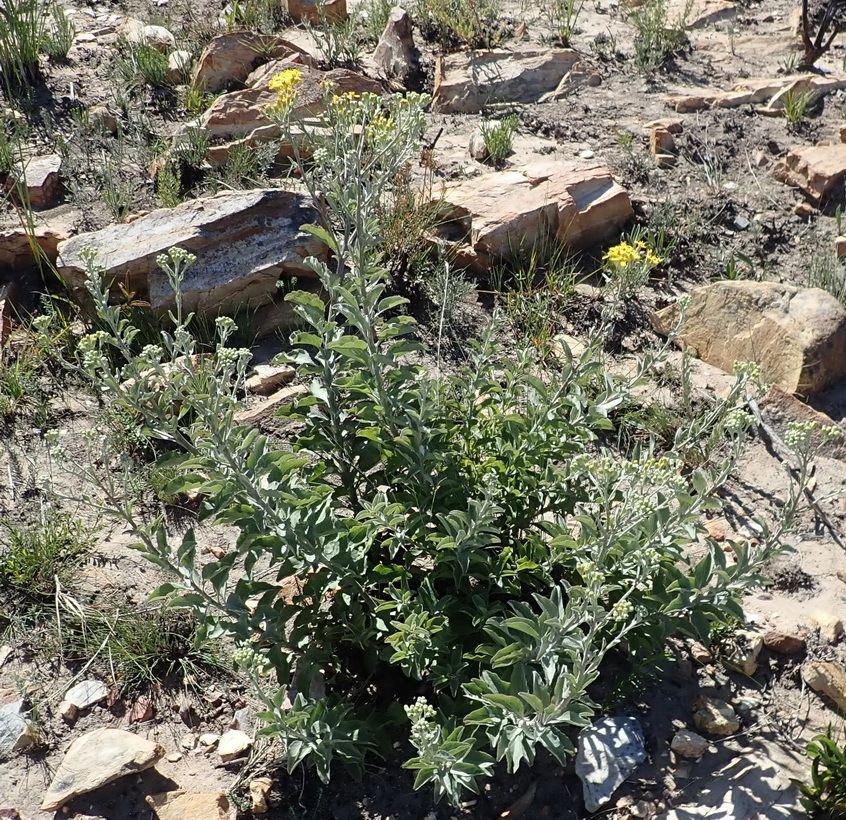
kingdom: Plantae
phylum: Tracheophyta
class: Magnoliopsida
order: Asterales
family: Asteraceae
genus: Senecio
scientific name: Senecio crenatus
